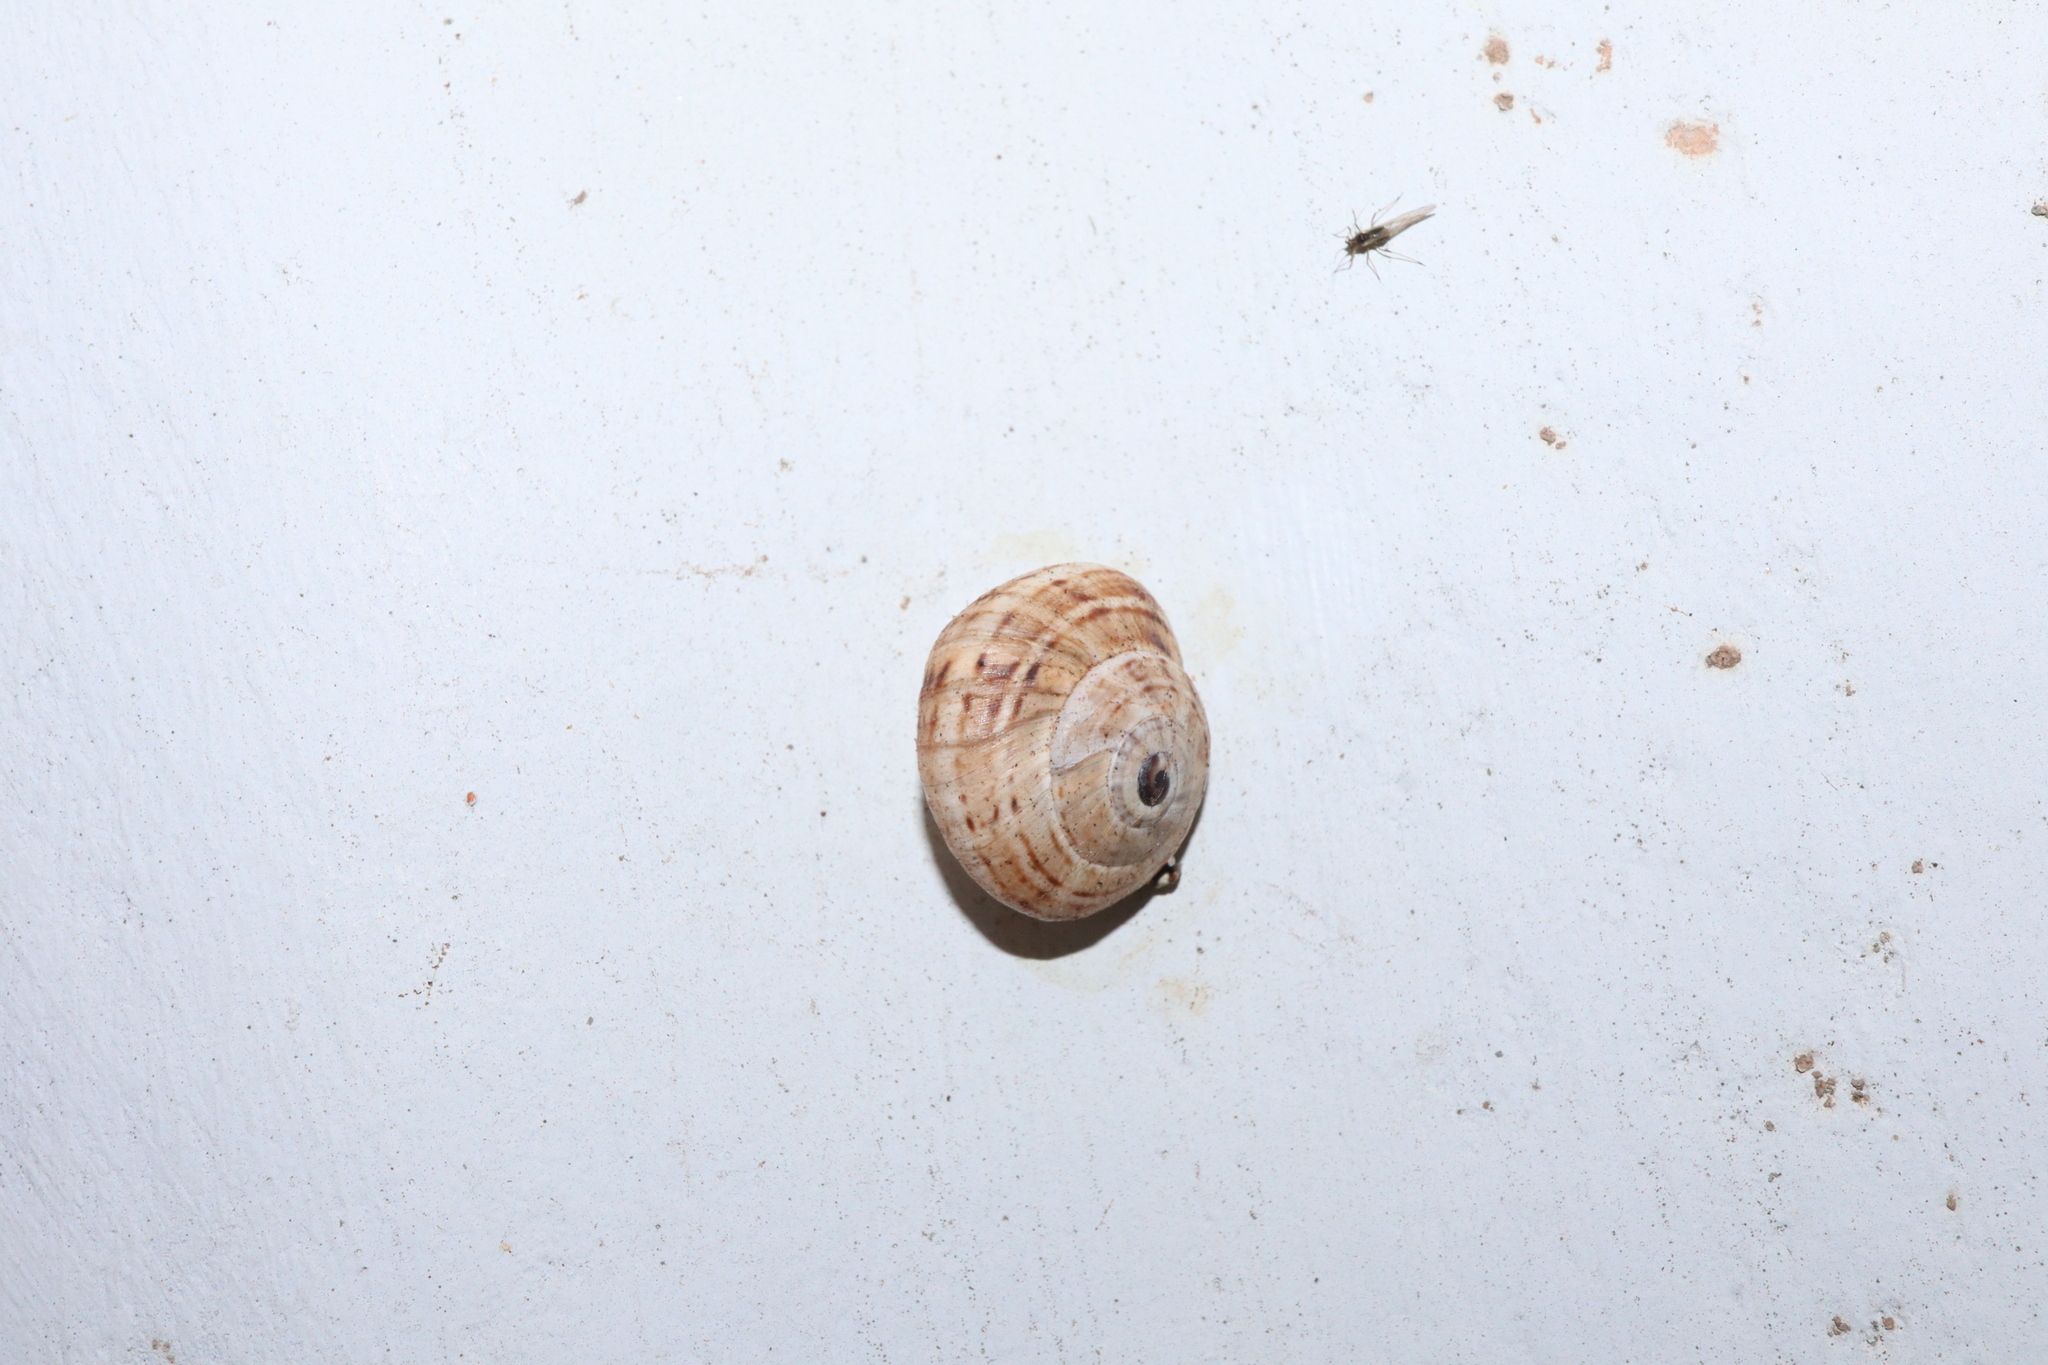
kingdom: Animalia
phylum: Mollusca
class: Gastropoda
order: Stylommatophora
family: Helicidae
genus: Theba
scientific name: Theba pisana
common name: White snail
